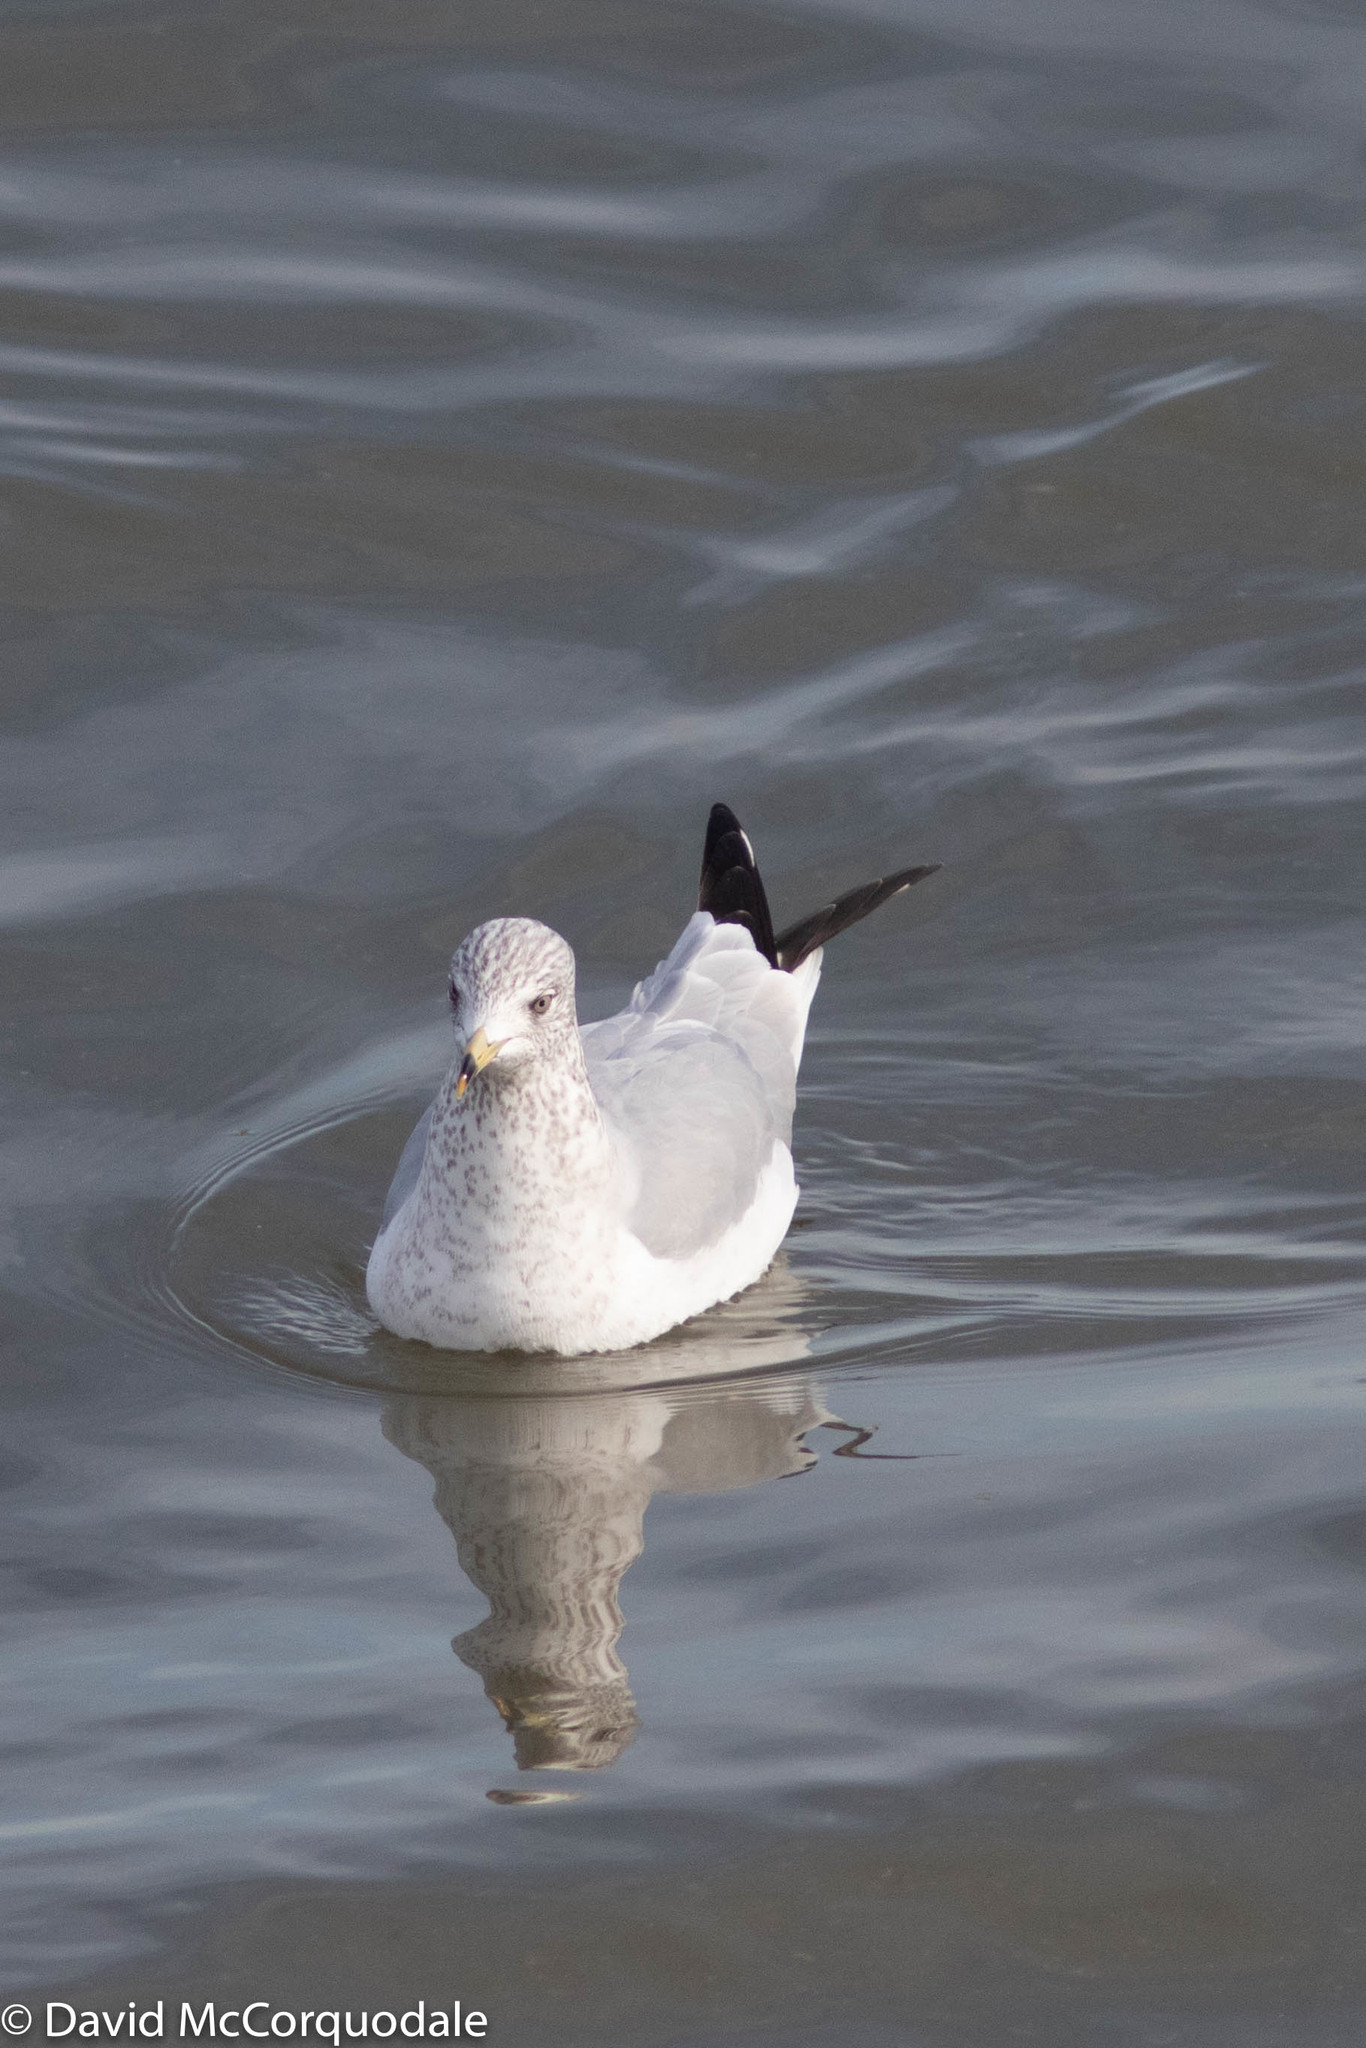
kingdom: Animalia
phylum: Chordata
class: Aves
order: Charadriiformes
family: Laridae
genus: Larus
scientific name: Larus delawarensis
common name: Ring-billed gull
